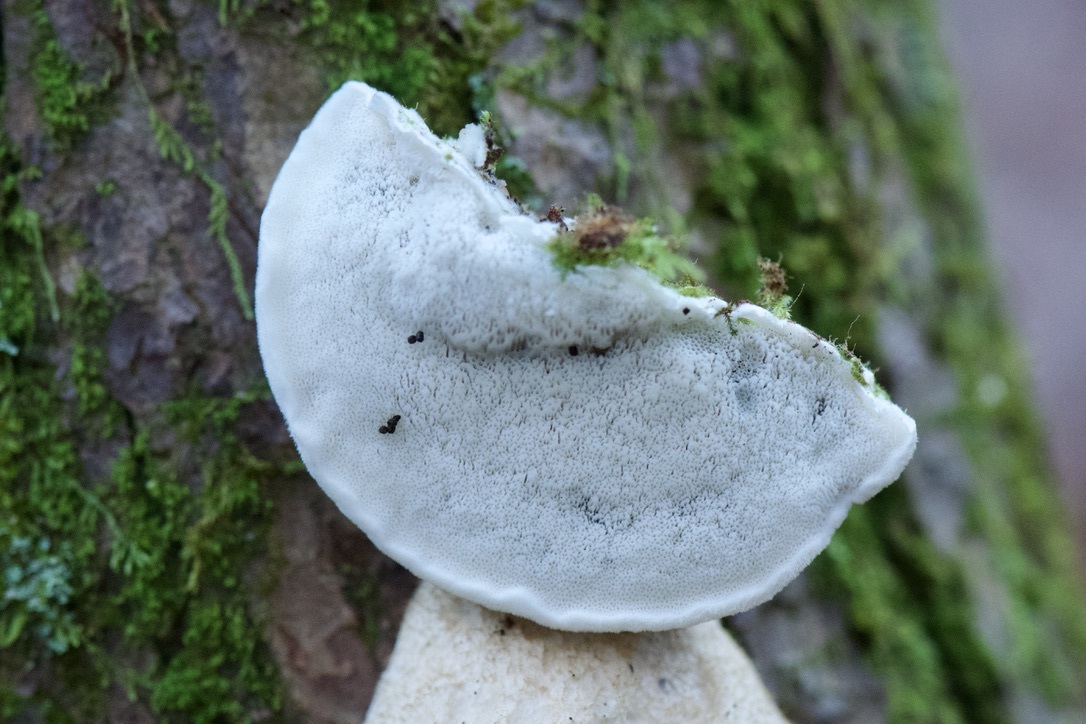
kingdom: Fungi
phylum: Basidiomycota
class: Agaricomycetes
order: Polyporales
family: Polyporaceae
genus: Cyanosporus
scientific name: Cyanosporus livens
